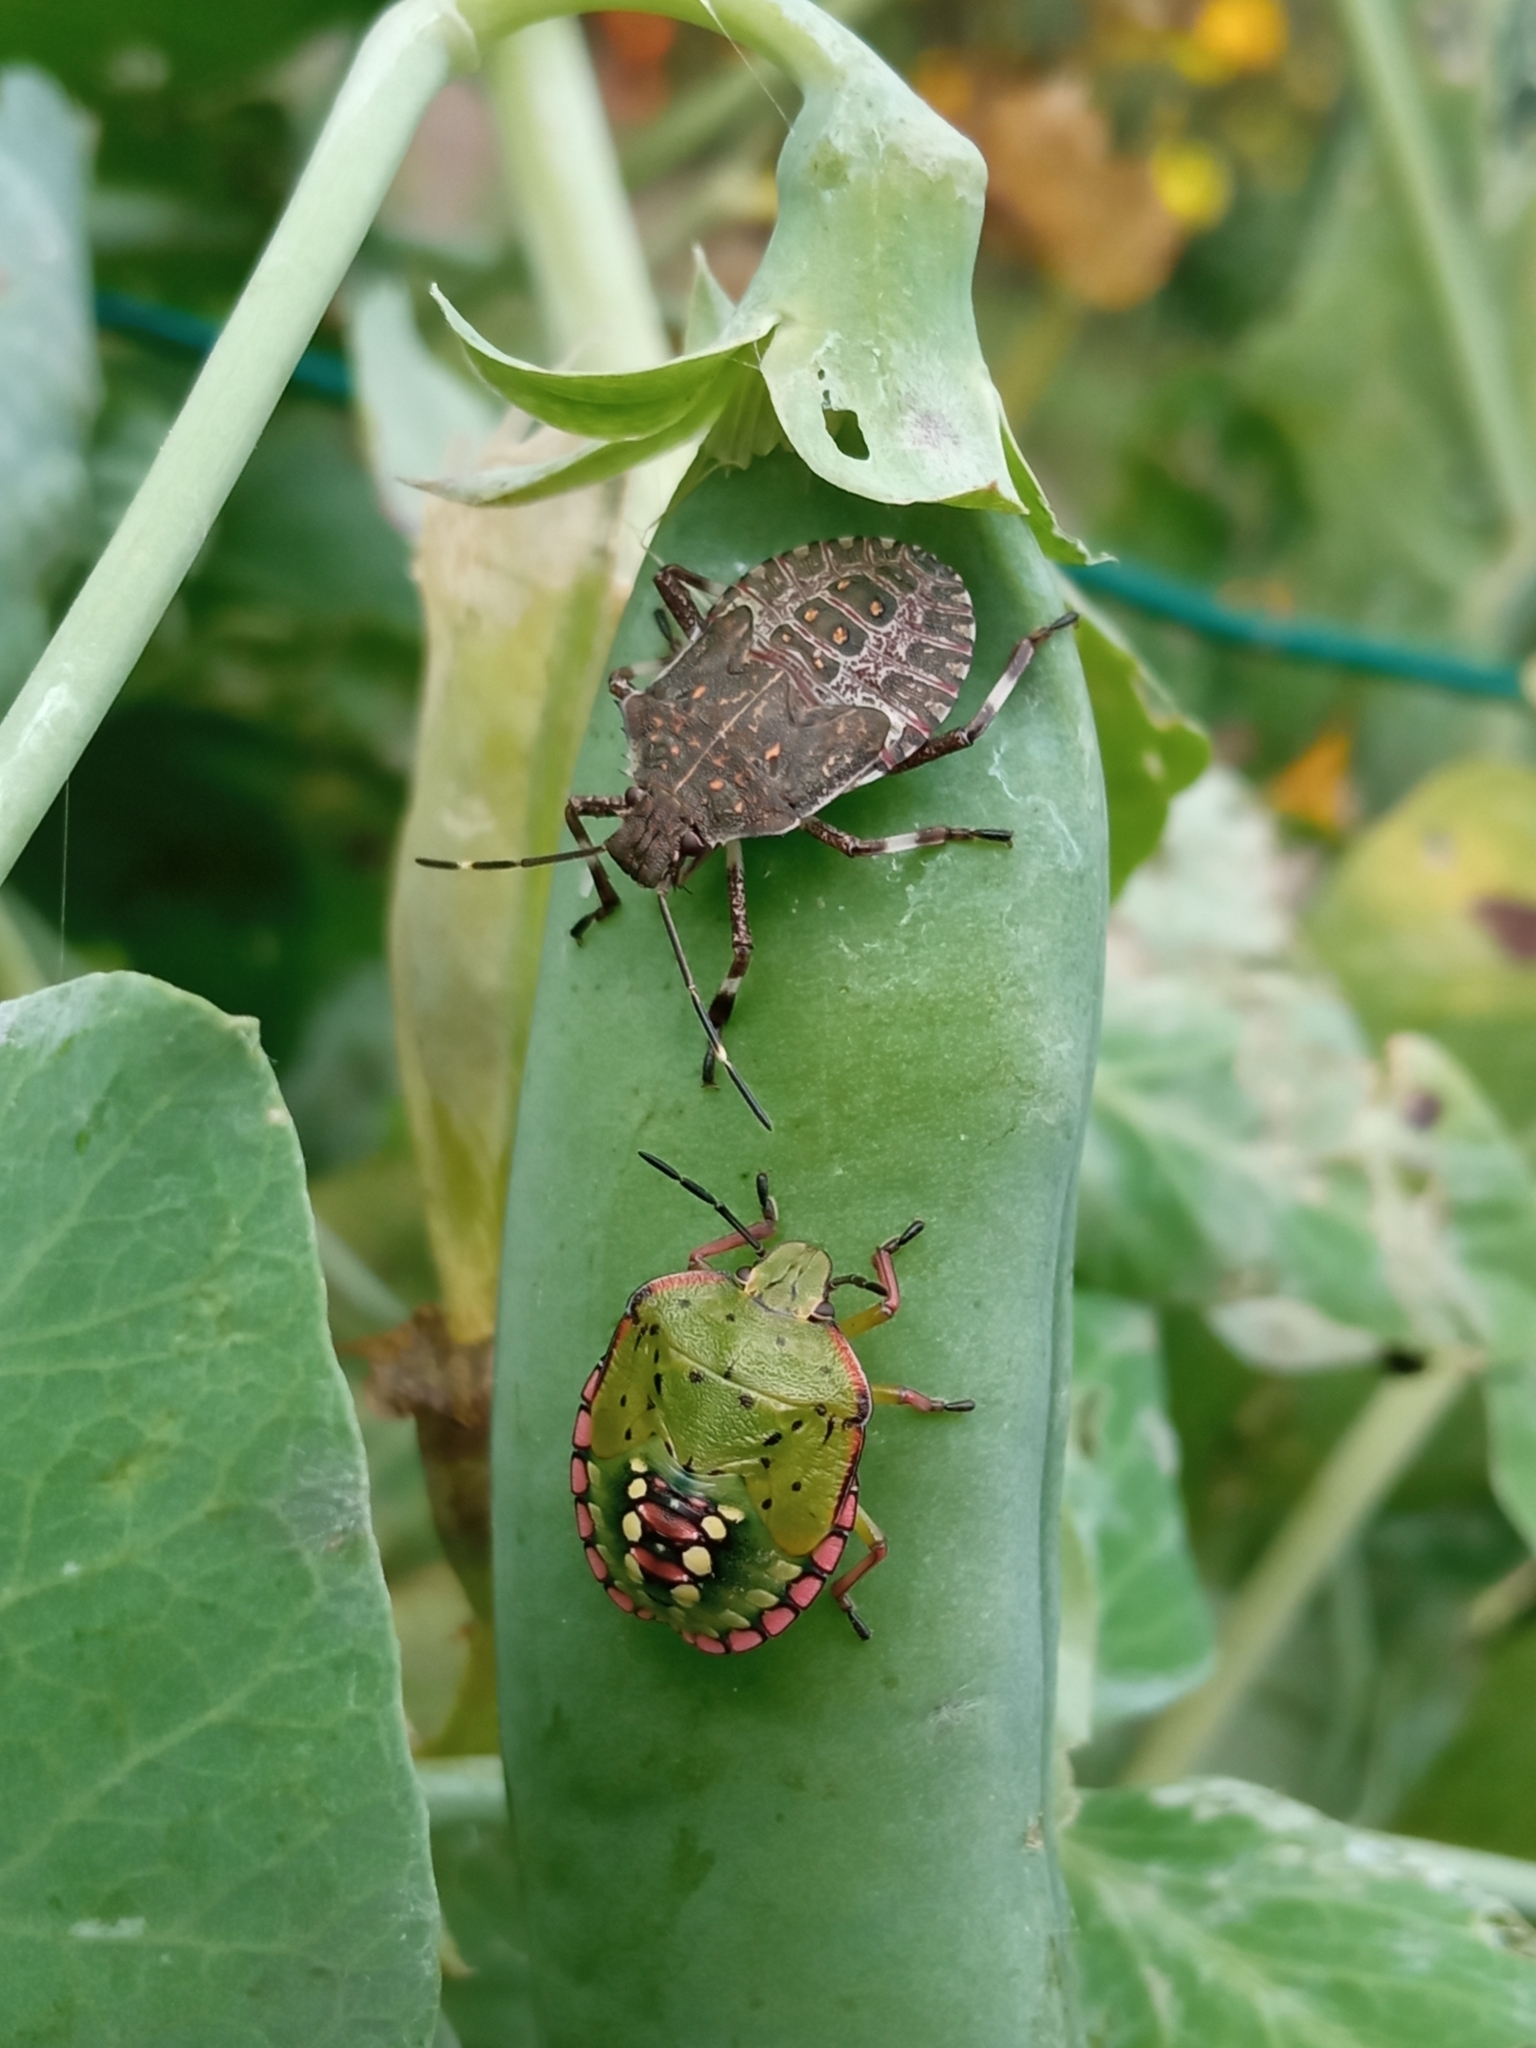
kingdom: Animalia
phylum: Arthropoda
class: Insecta
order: Hemiptera
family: Pentatomidae
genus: Halyomorpha
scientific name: Halyomorpha halys
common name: Brown marmorated stink bug
